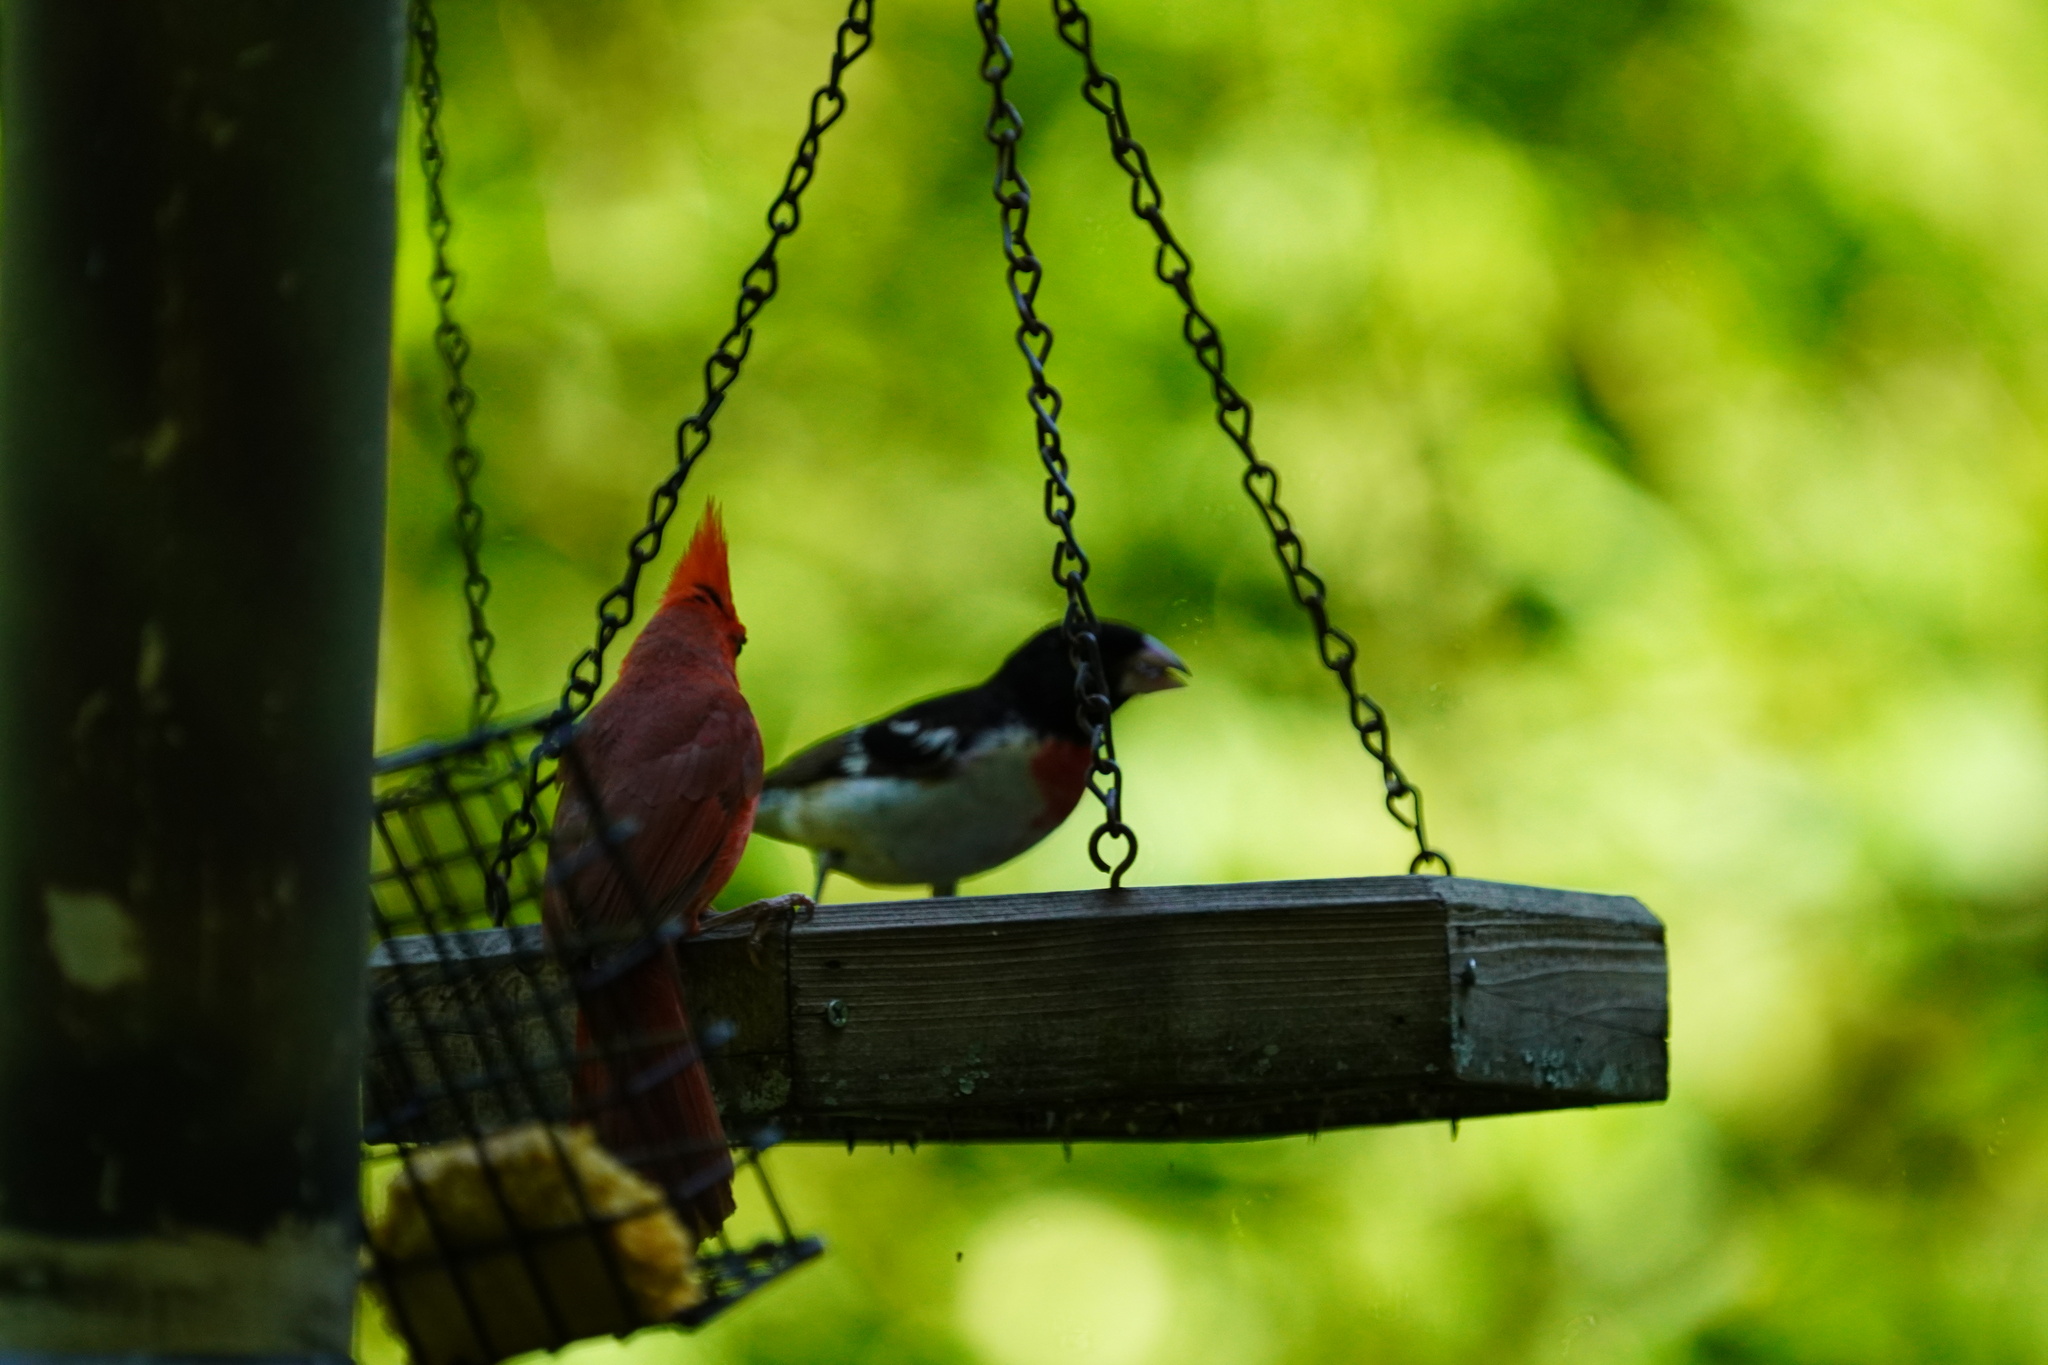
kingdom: Animalia
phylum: Chordata
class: Aves
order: Passeriformes
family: Cardinalidae
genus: Pheucticus
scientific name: Pheucticus ludovicianus
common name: Rose-breasted grosbeak
